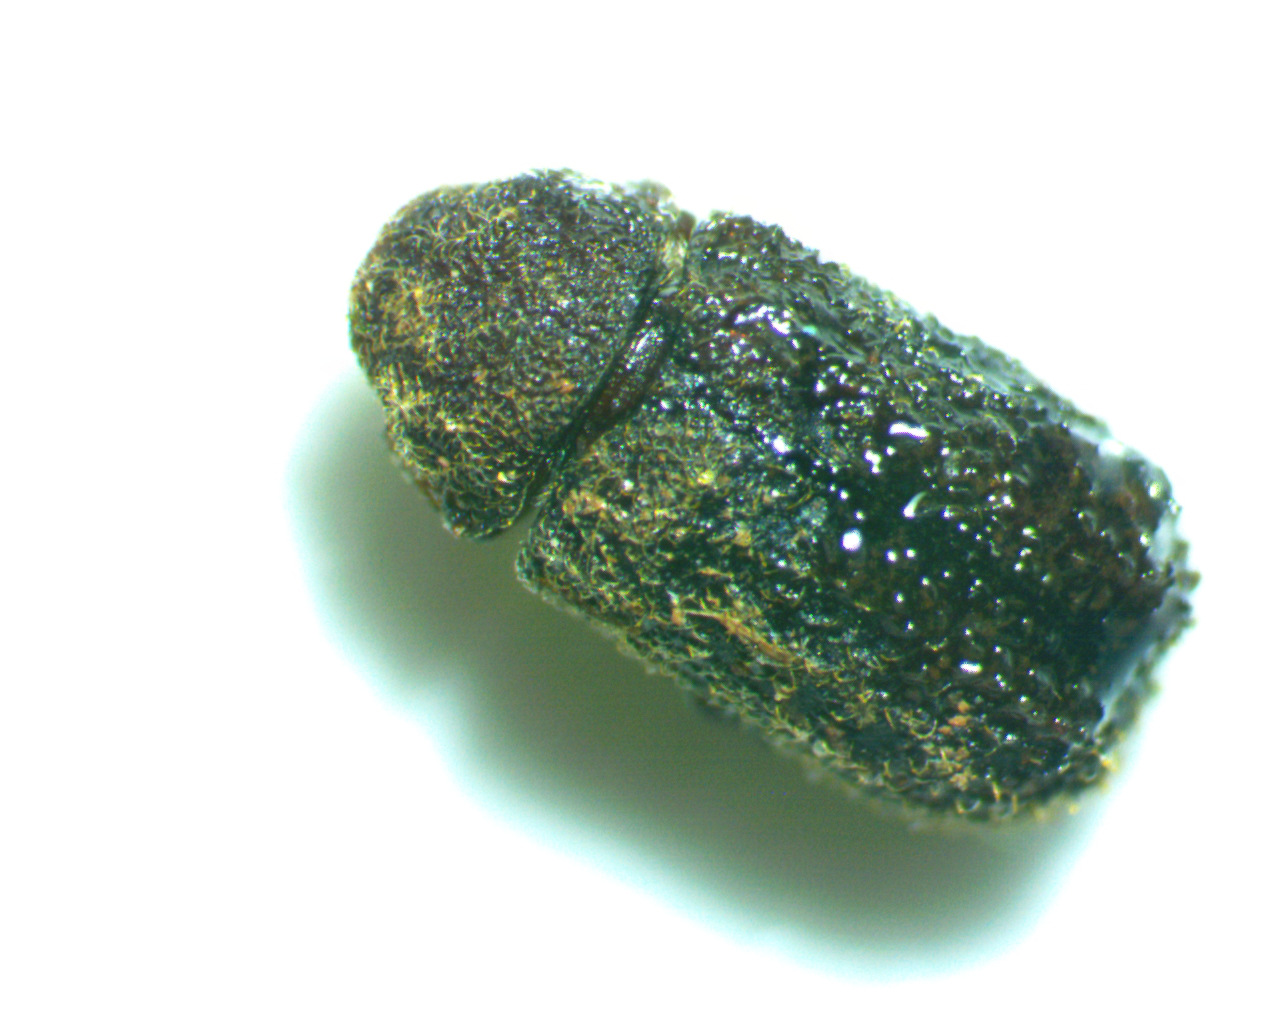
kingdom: Animalia
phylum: Arthropoda
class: Insecta
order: Coleoptera
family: Bostrichidae
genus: Endecatomus
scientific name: Endecatomus rugosus
